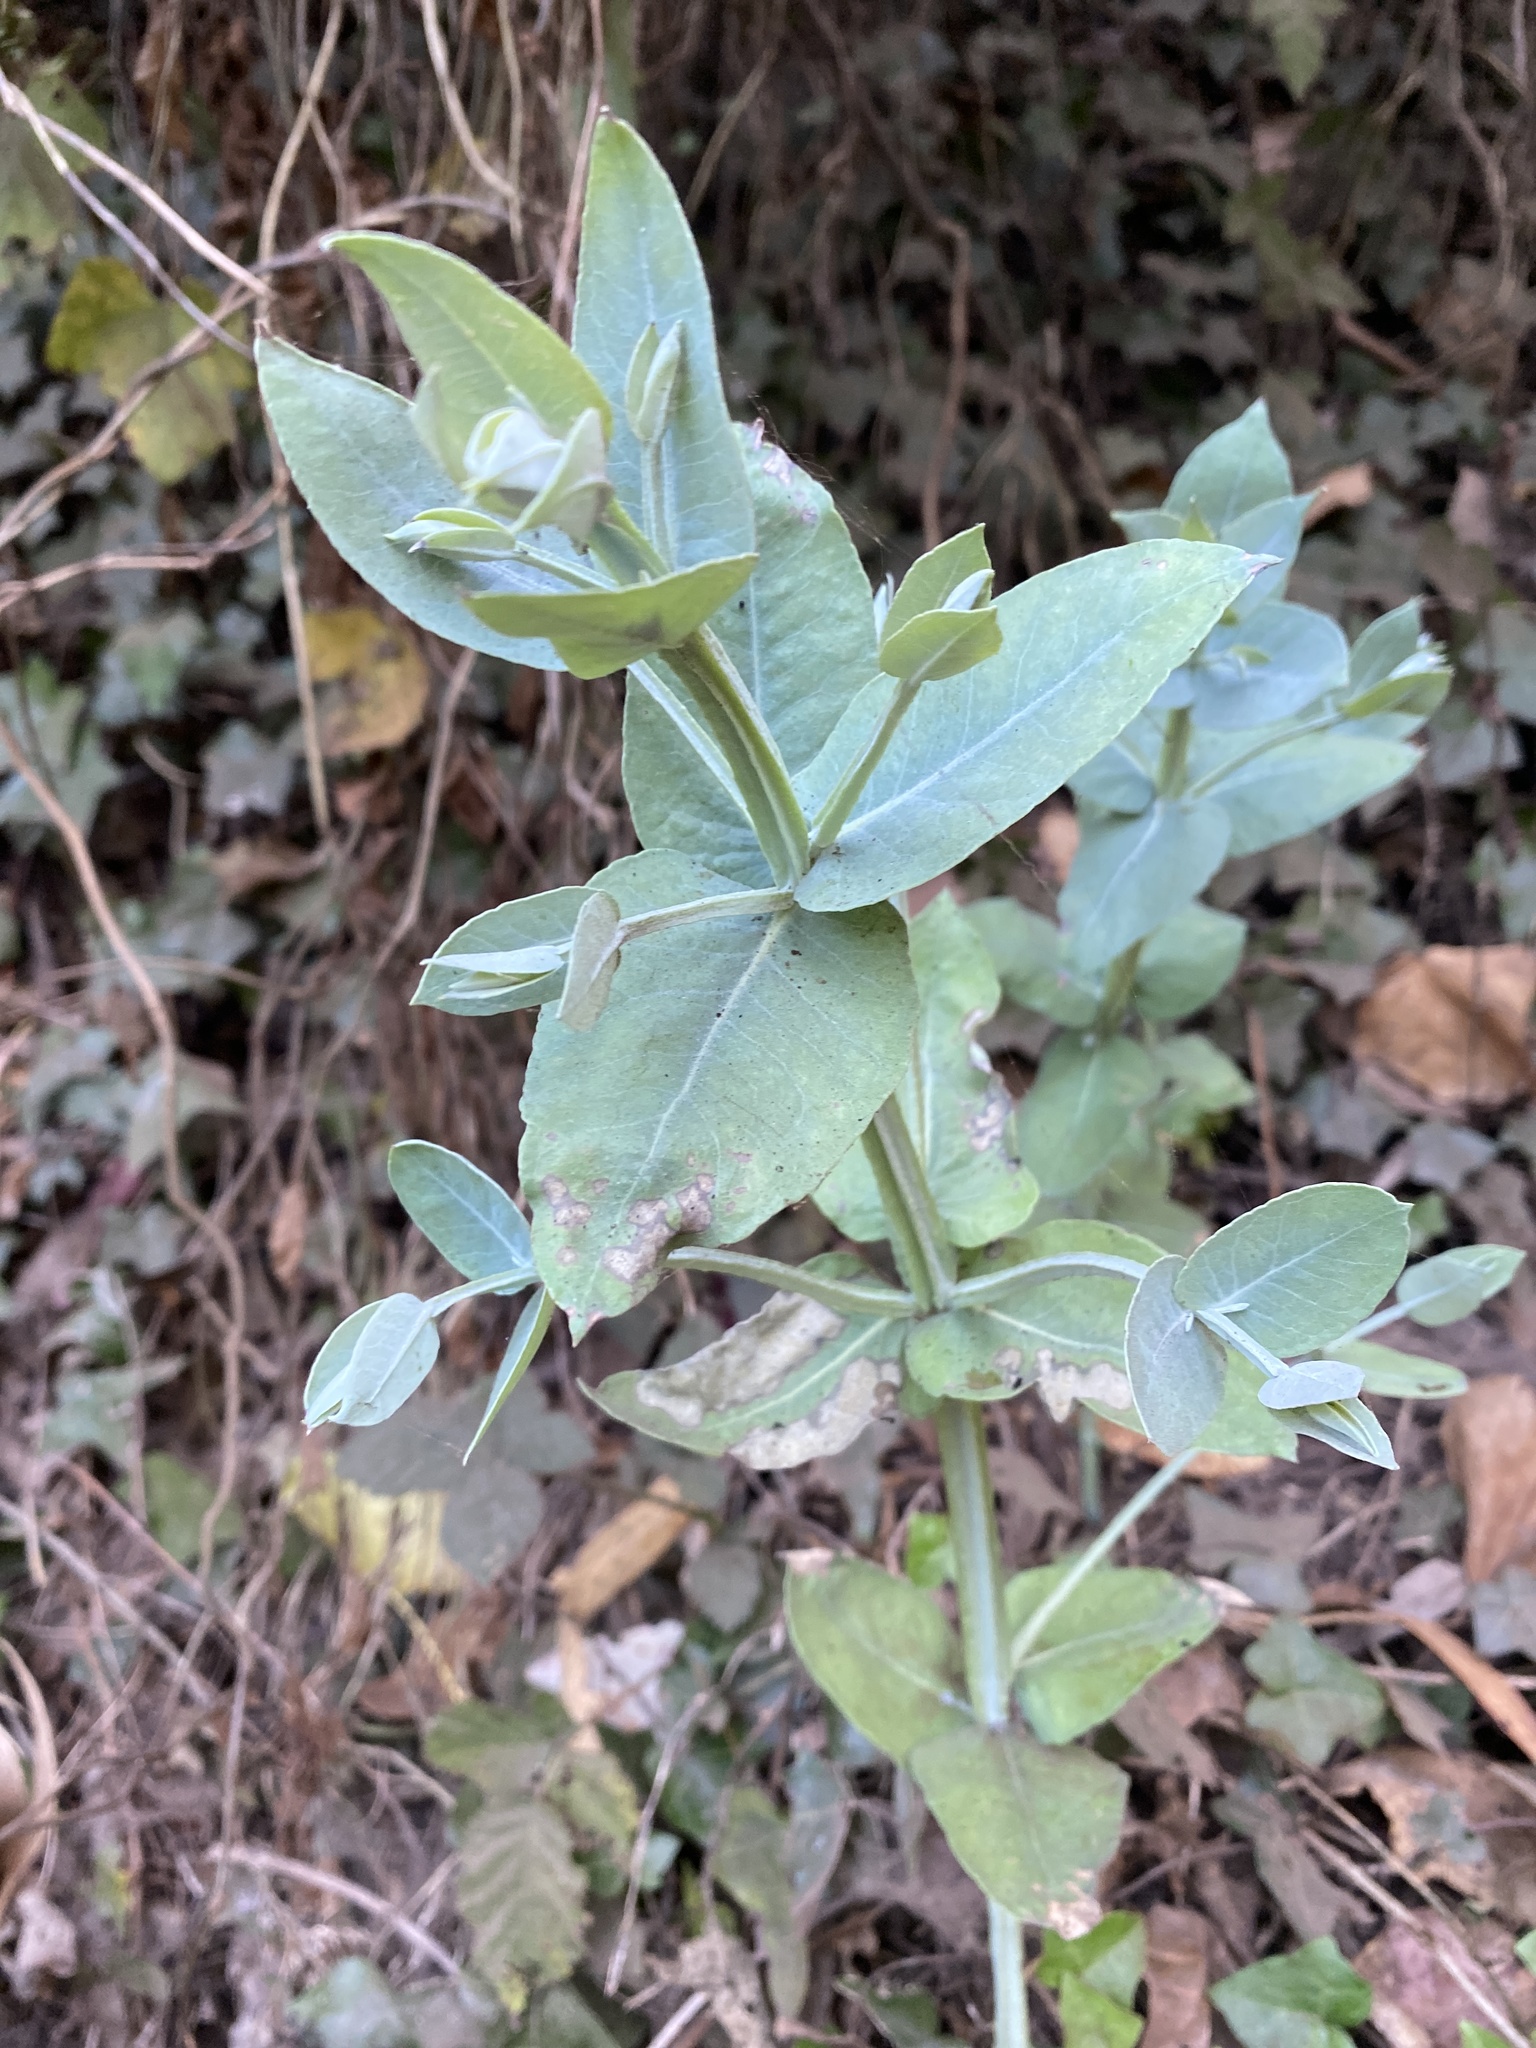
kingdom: Plantae
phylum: Tracheophyta
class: Magnoliopsida
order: Myrtales
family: Myrtaceae
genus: Eucalyptus
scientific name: Eucalyptus globulus
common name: Southern blue-gum
